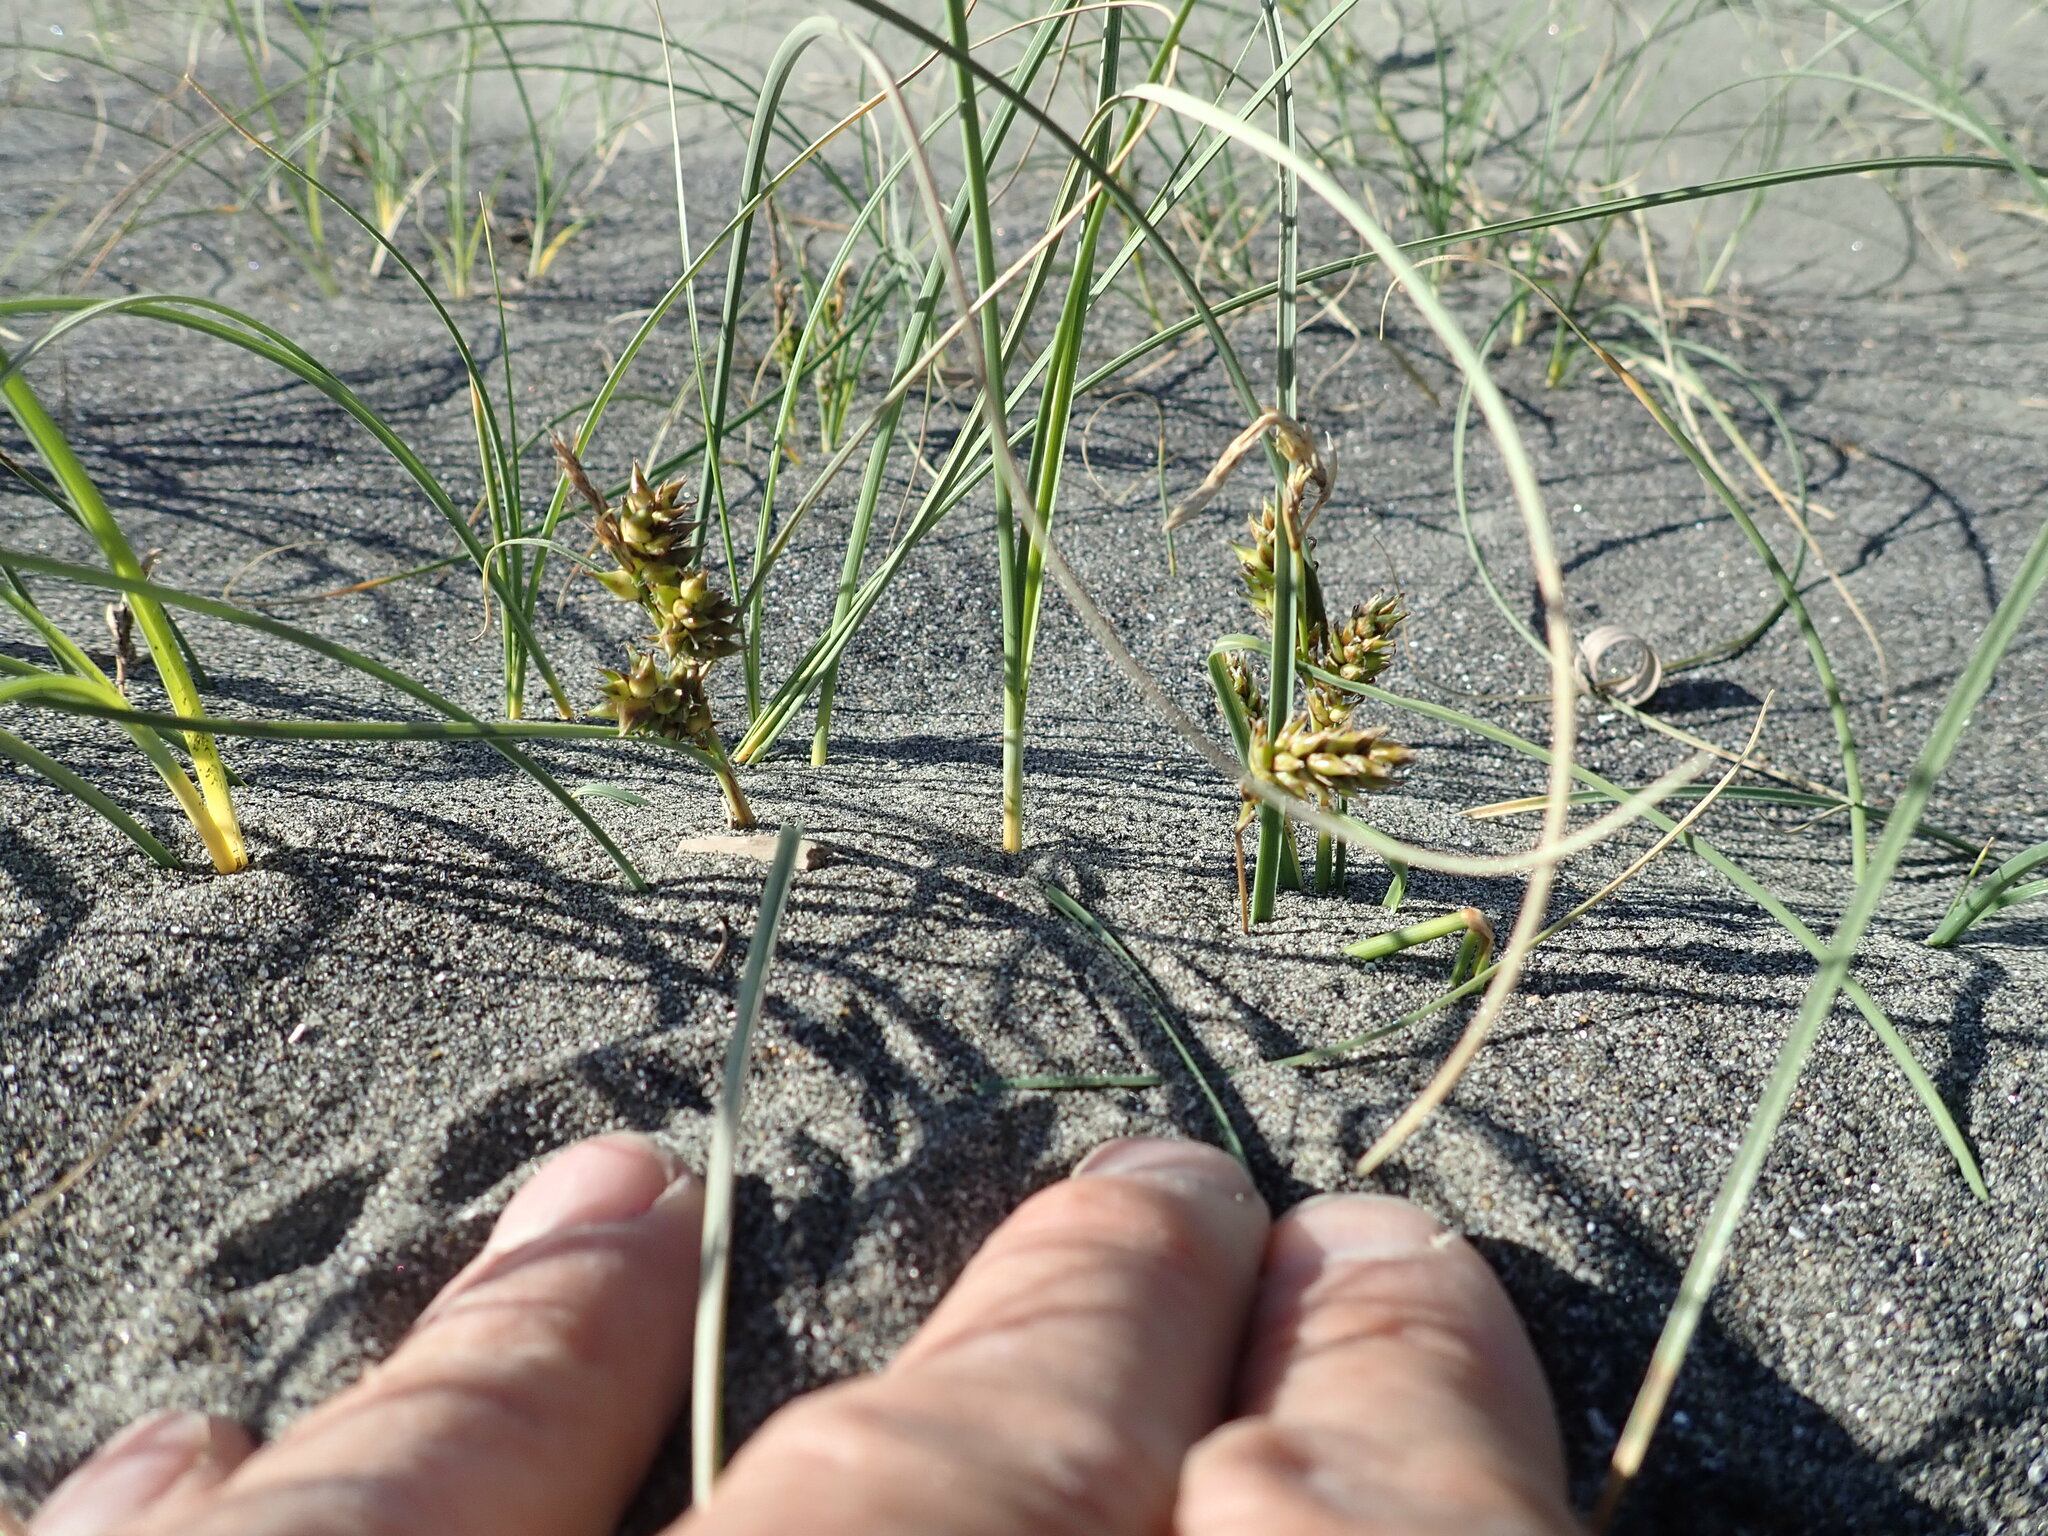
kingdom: Plantae
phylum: Tracheophyta
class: Liliopsida
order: Poales
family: Cyperaceae
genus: Carex
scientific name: Carex pumila
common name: Dwarf sedge
